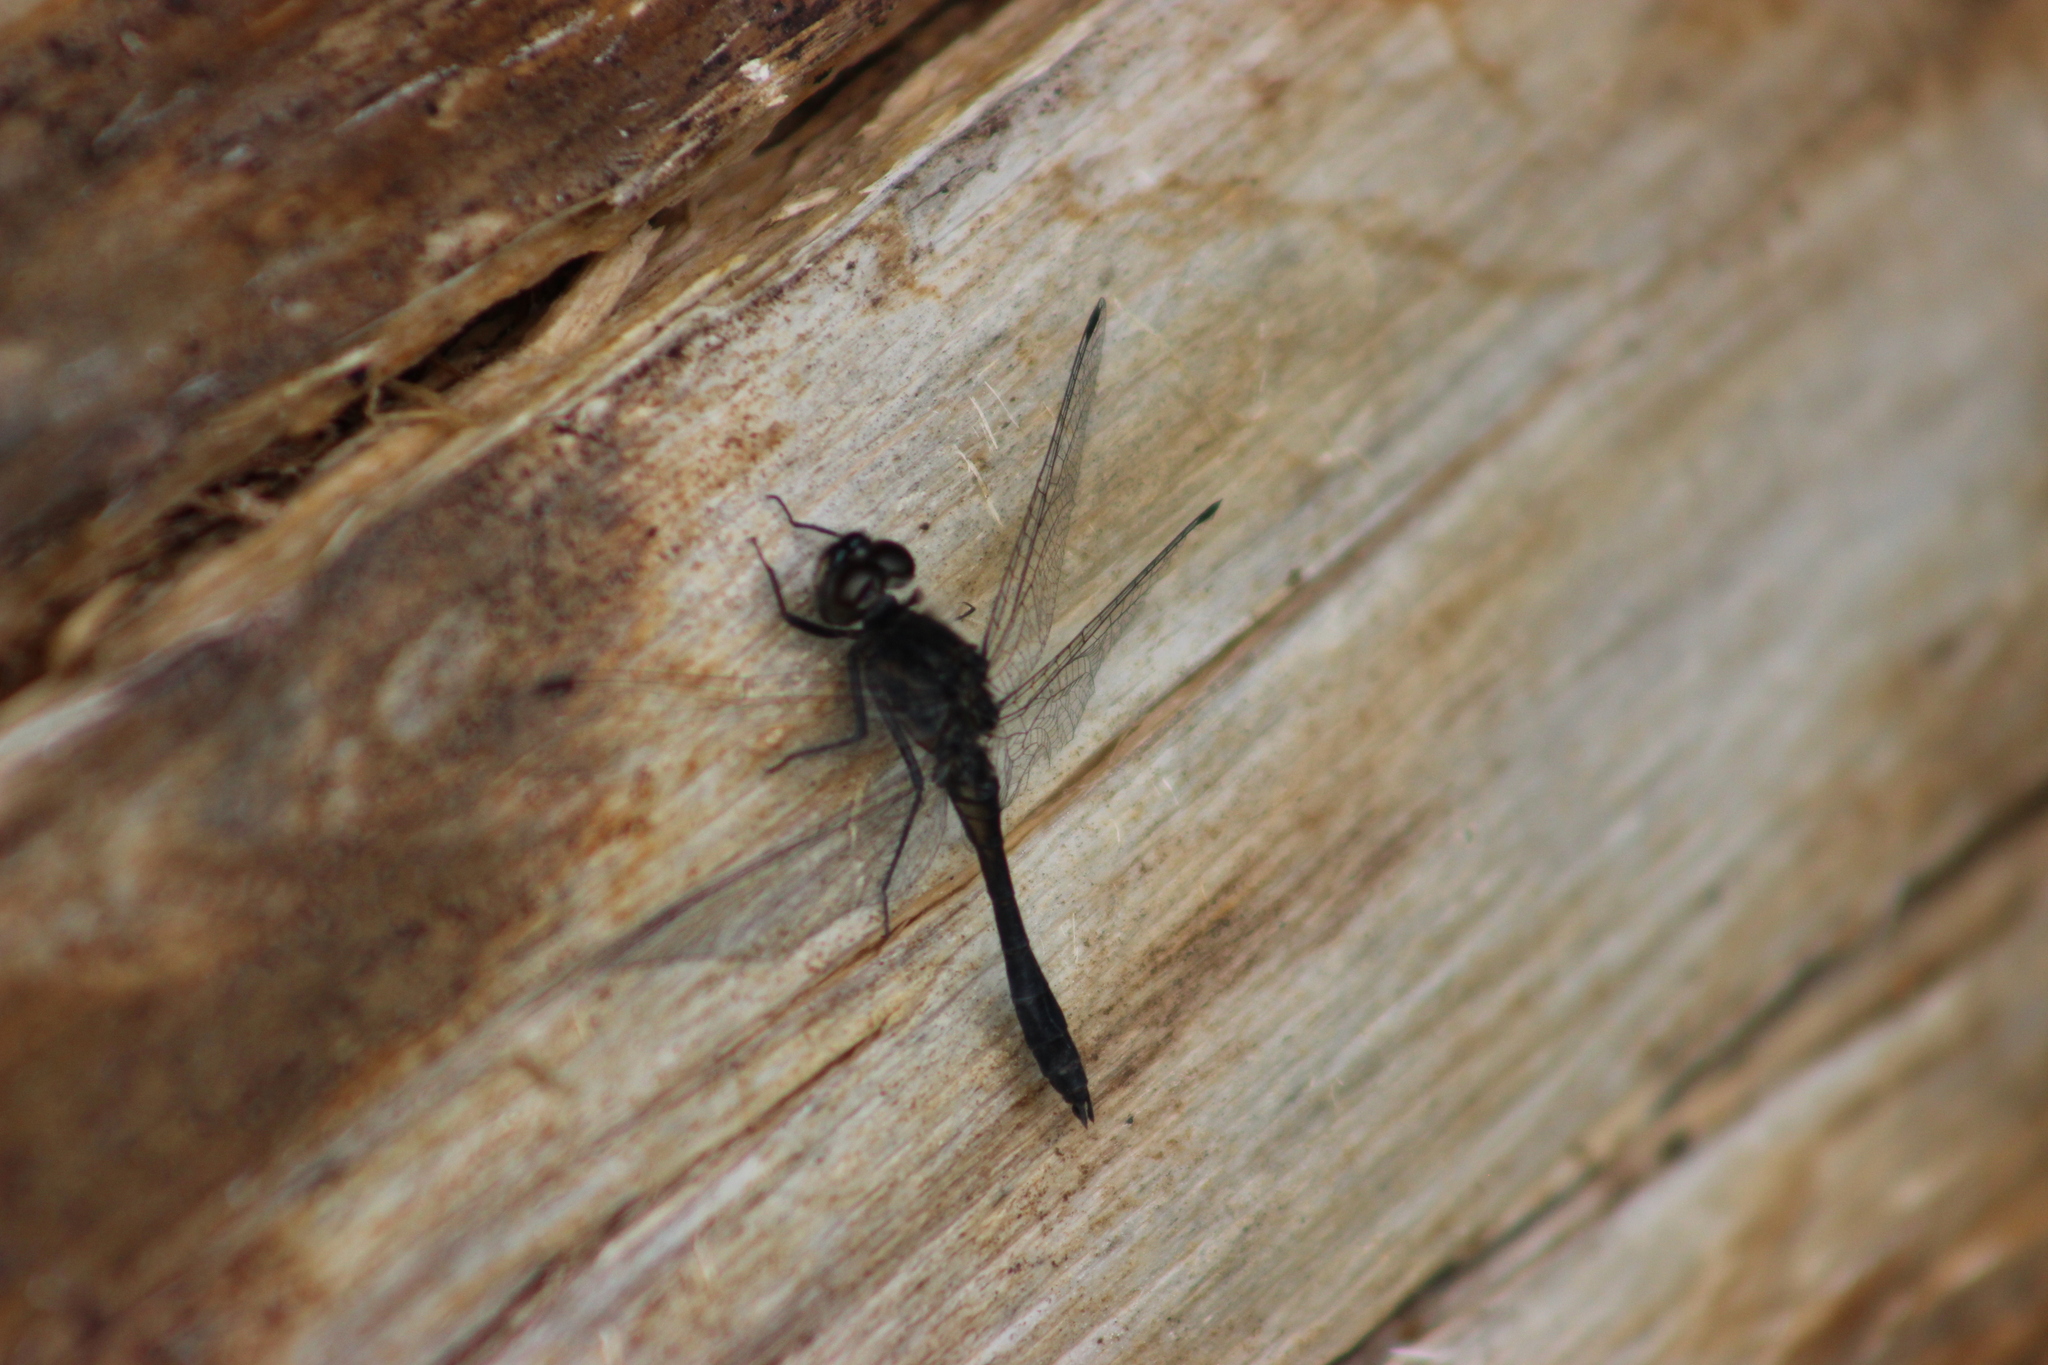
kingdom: Animalia
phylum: Arthropoda
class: Insecta
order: Odonata
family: Libellulidae
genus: Sympetrum
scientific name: Sympetrum danae
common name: Black darter
